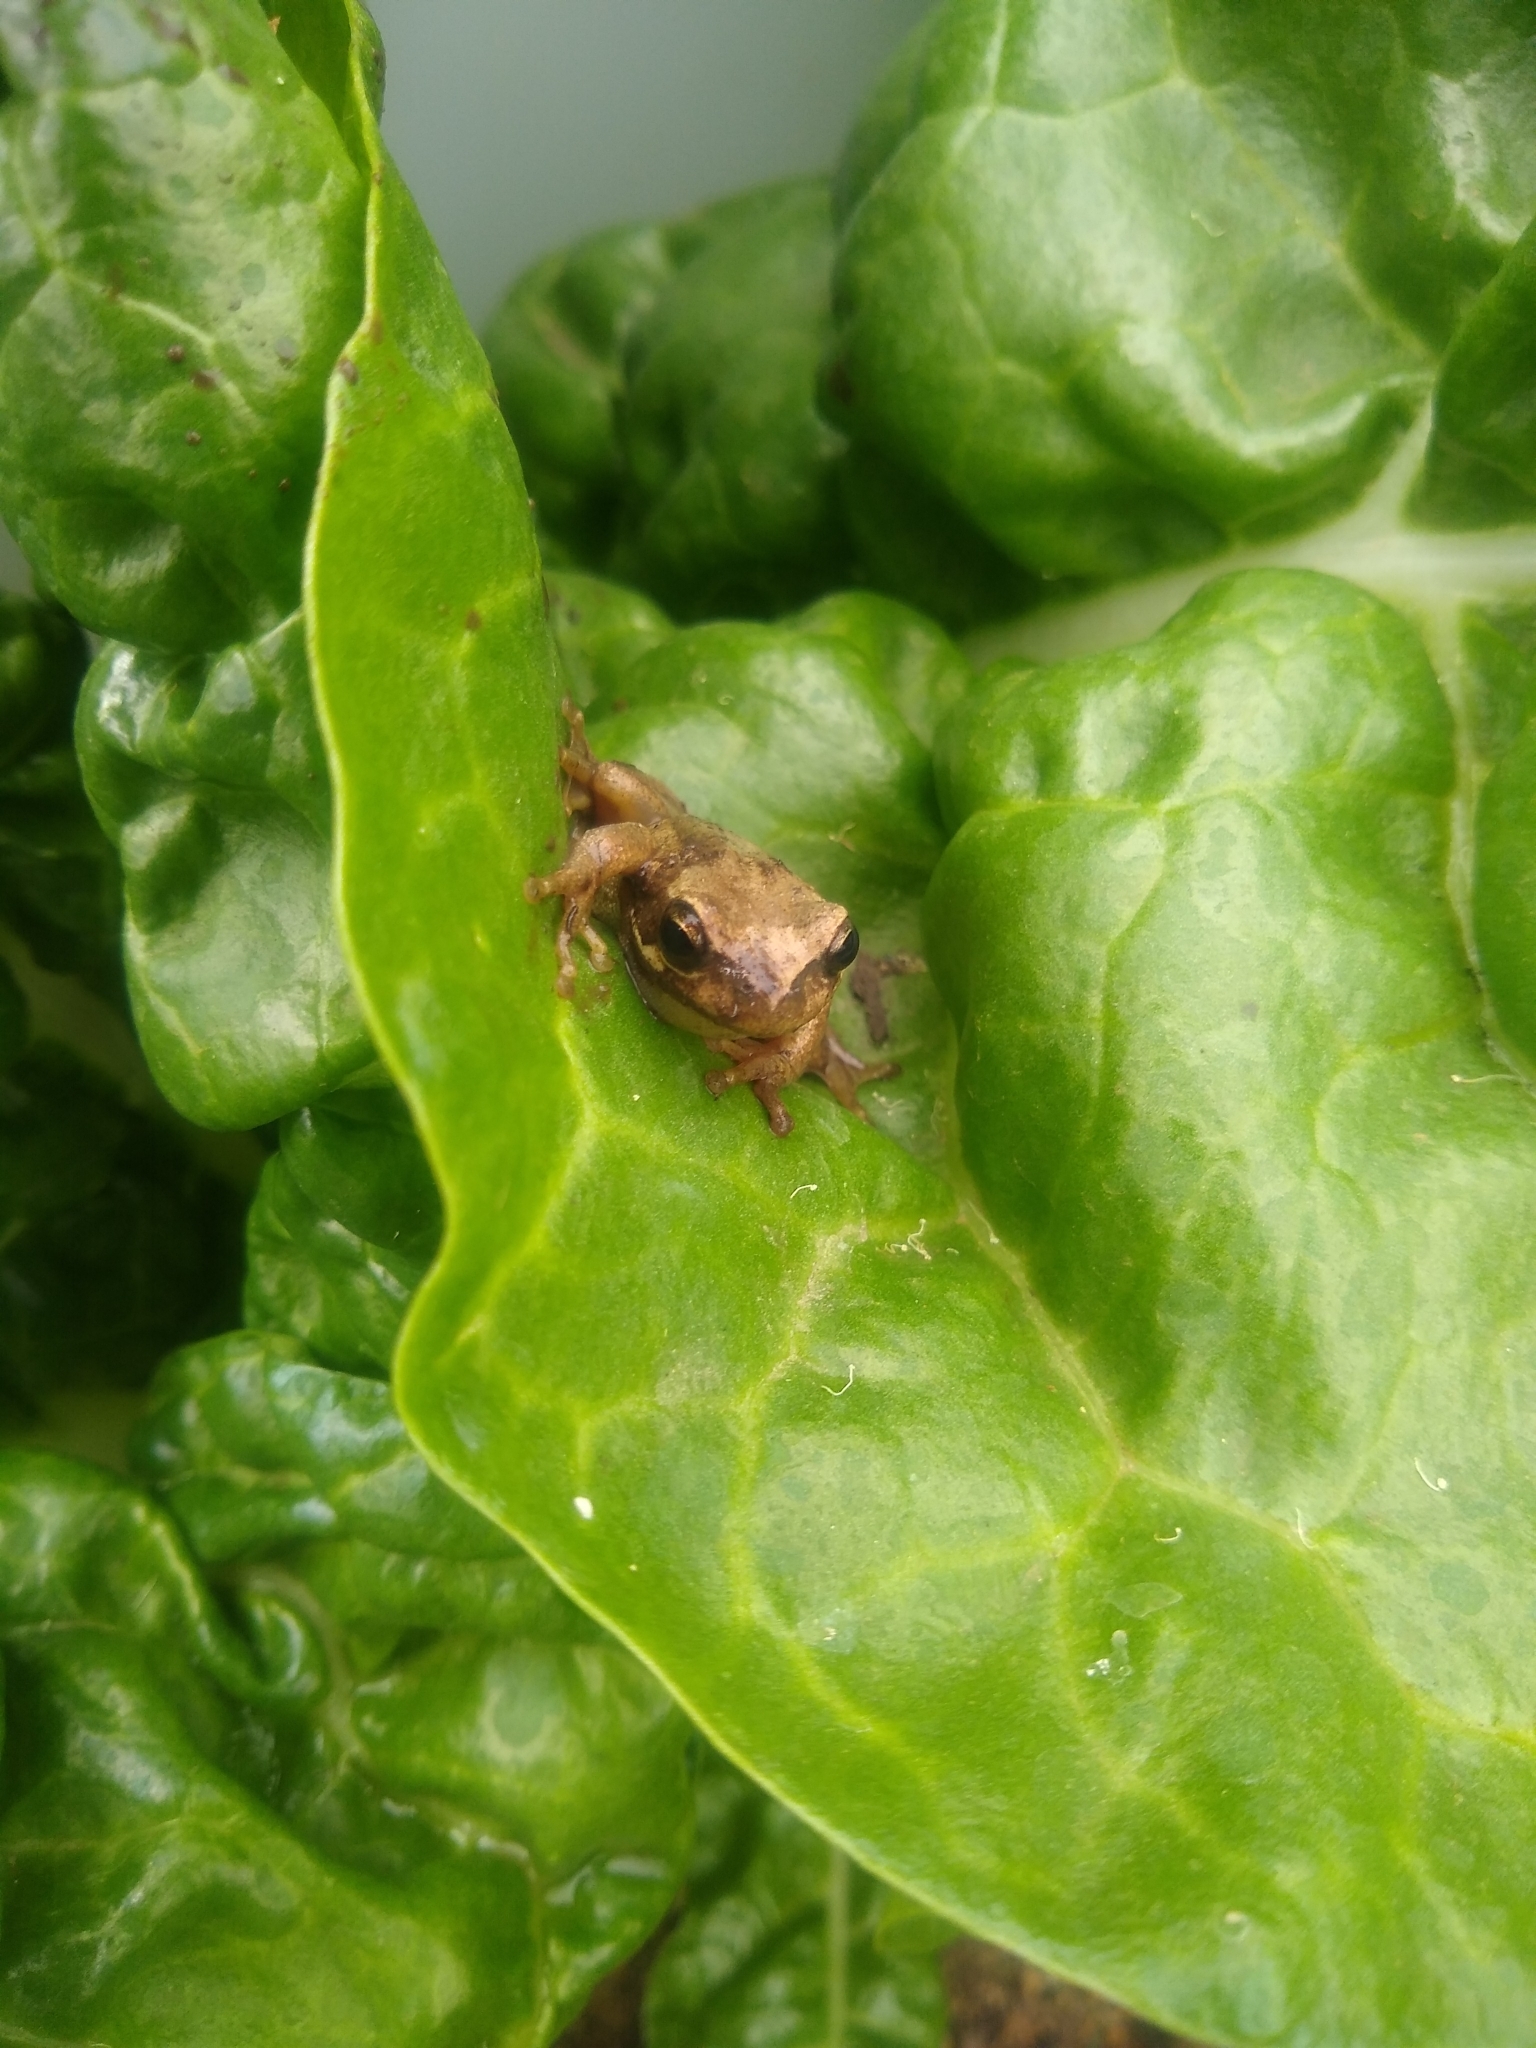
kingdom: Animalia
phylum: Chordata
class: Amphibia
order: Anura
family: Pelodryadidae
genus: Litoria
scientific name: Litoria ewingii
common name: Southern brown tree frog
